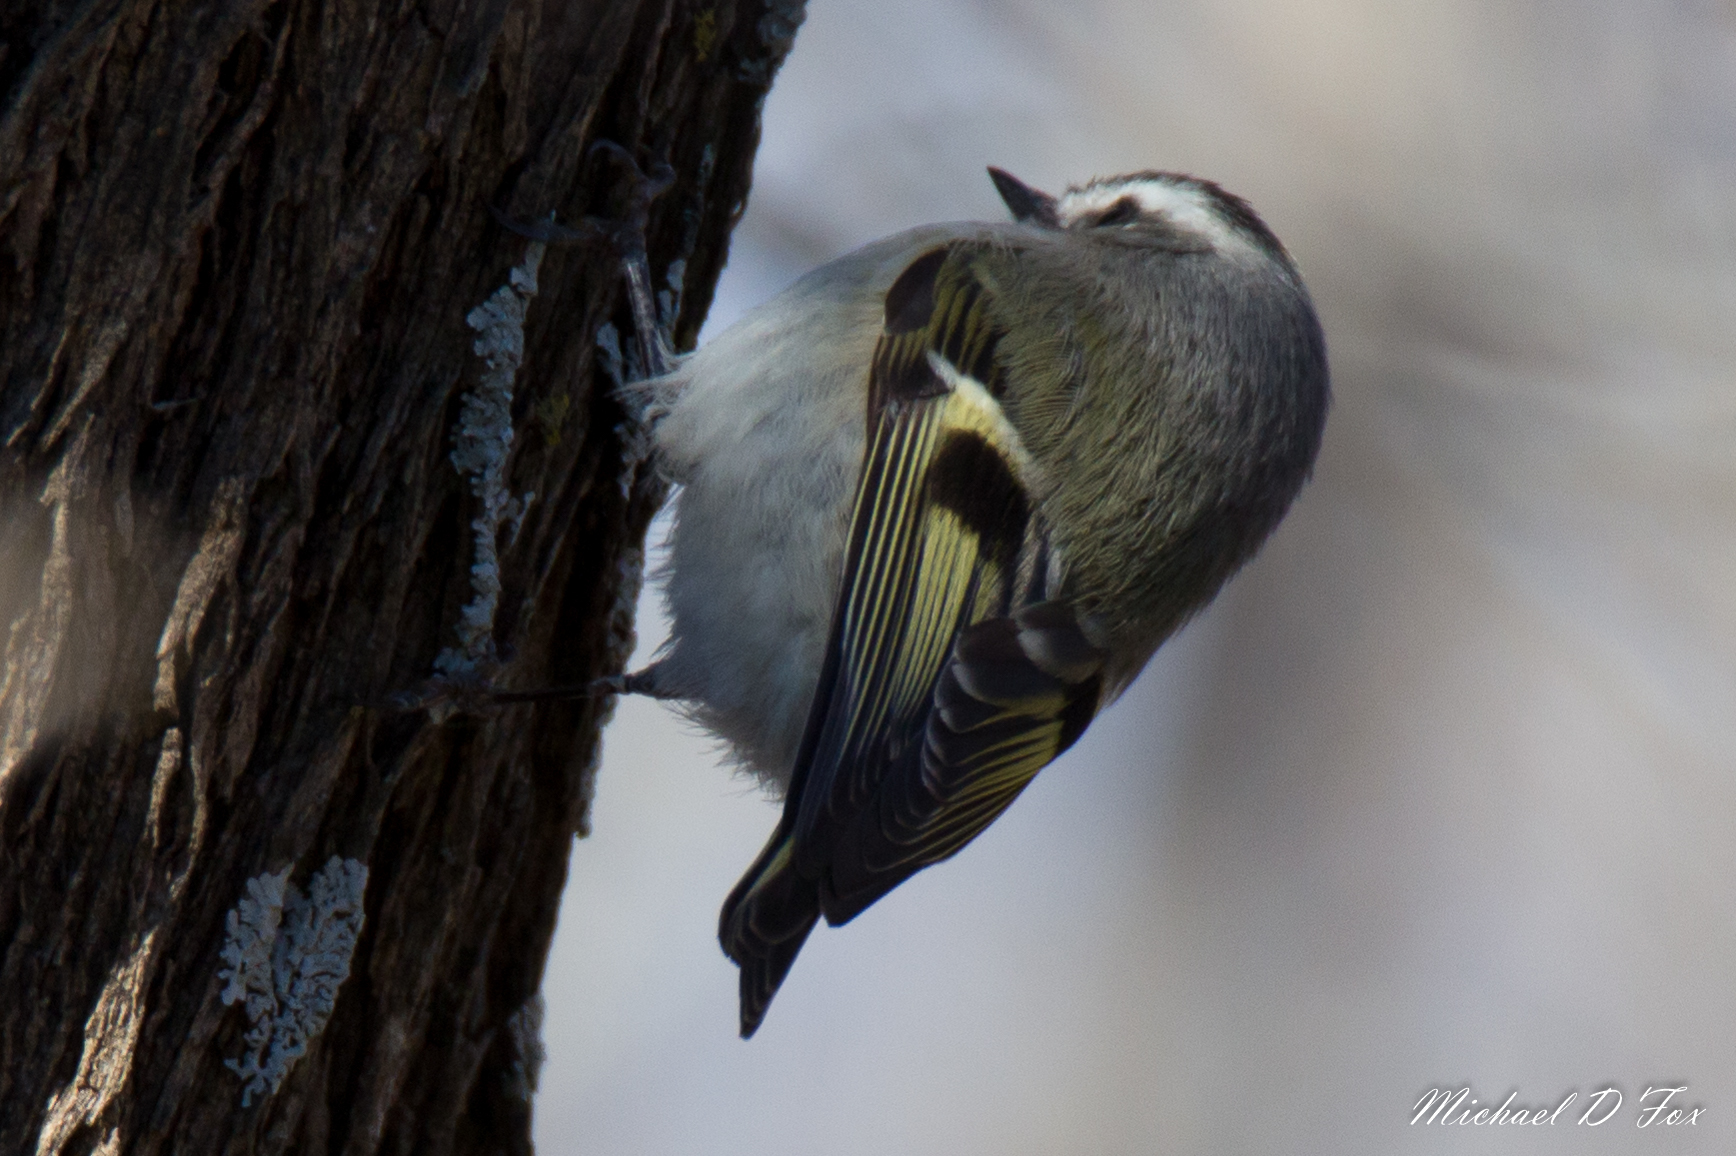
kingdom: Animalia
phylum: Chordata
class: Aves
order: Passeriformes
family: Regulidae
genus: Regulus
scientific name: Regulus satrapa
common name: Golden-crowned kinglet
